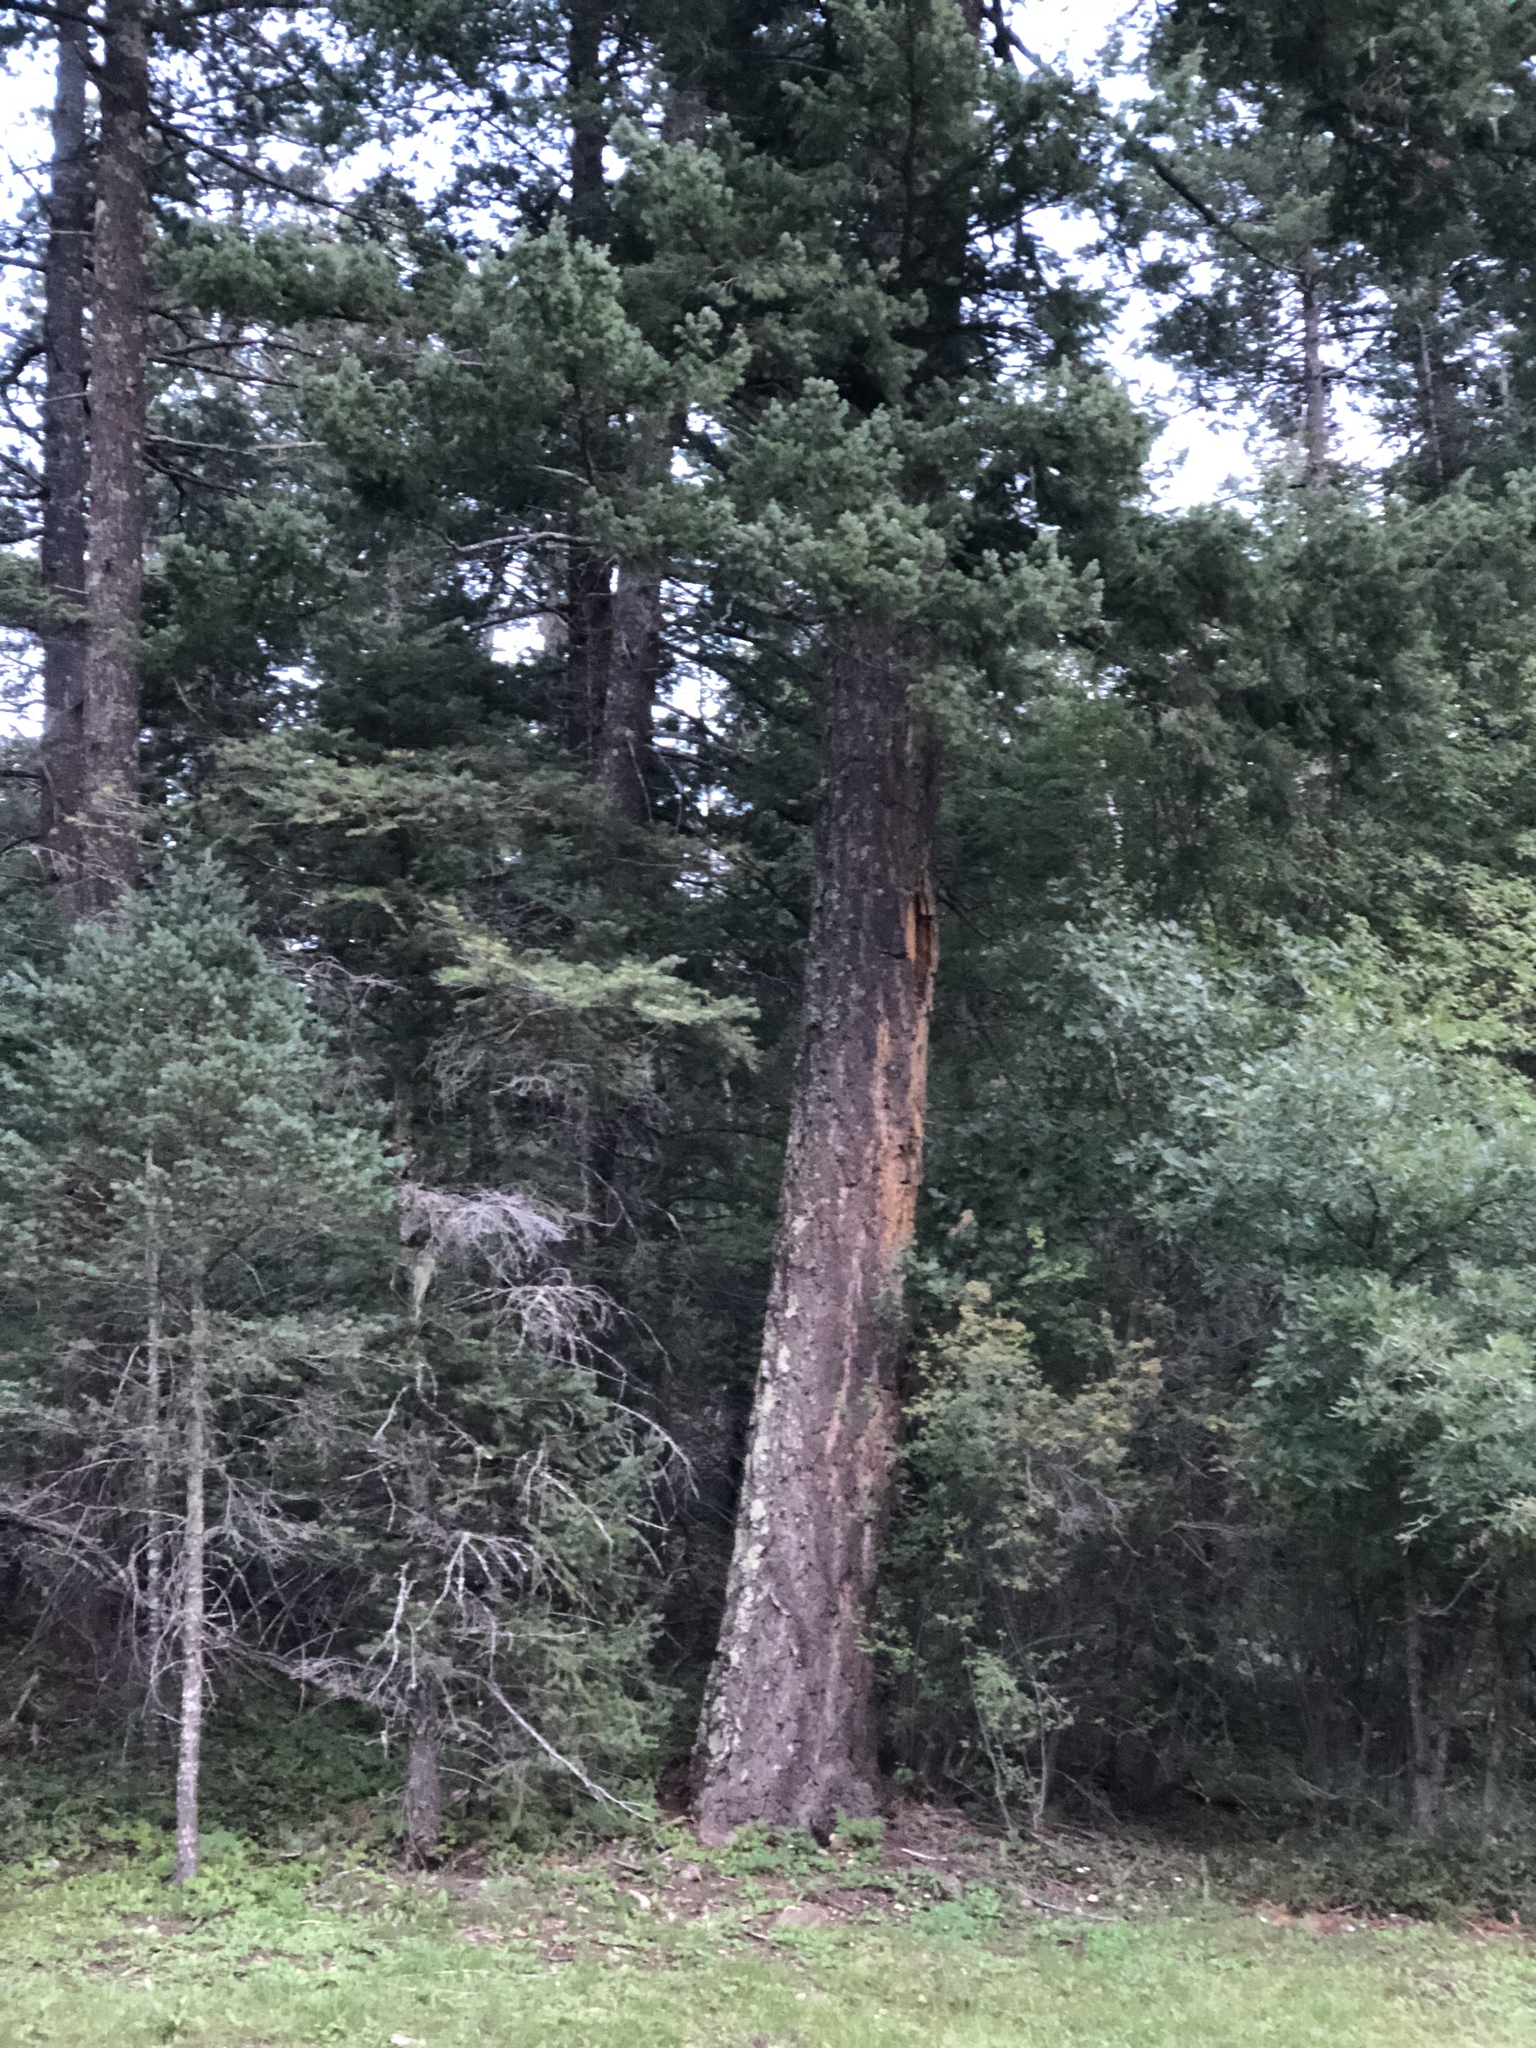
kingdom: Plantae
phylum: Tracheophyta
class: Pinopsida
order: Pinales
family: Pinaceae
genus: Pseudotsuga
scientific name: Pseudotsuga menziesii
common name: Douglas fir
